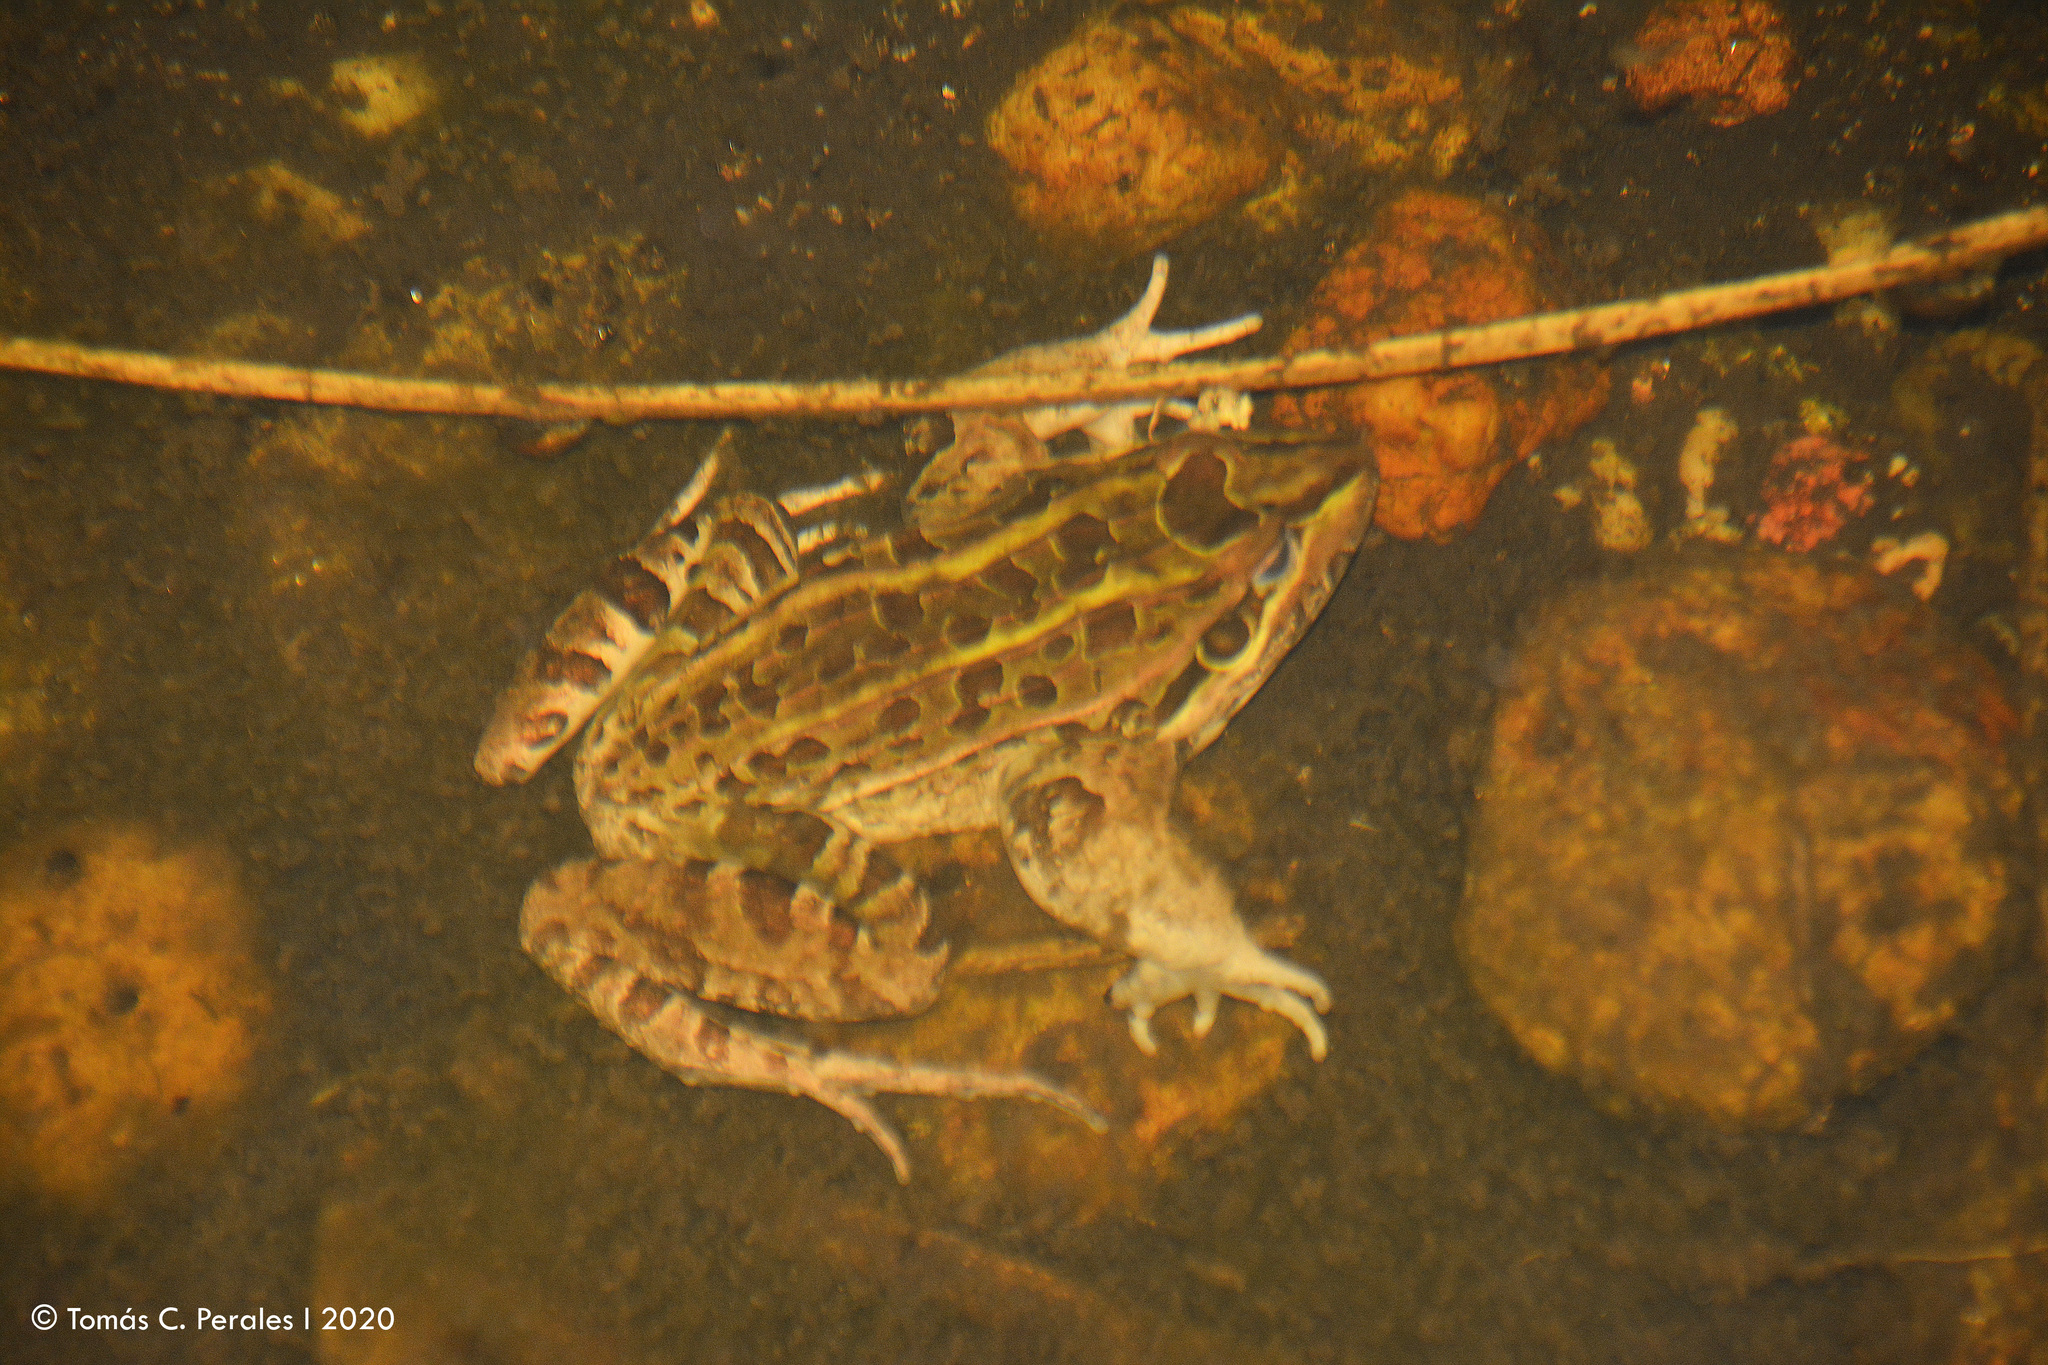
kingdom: Animalia
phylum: Chordata
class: Amphibia
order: Anura
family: Leptodactylidae
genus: Leptodactylus
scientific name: Leptodactylus luctator
